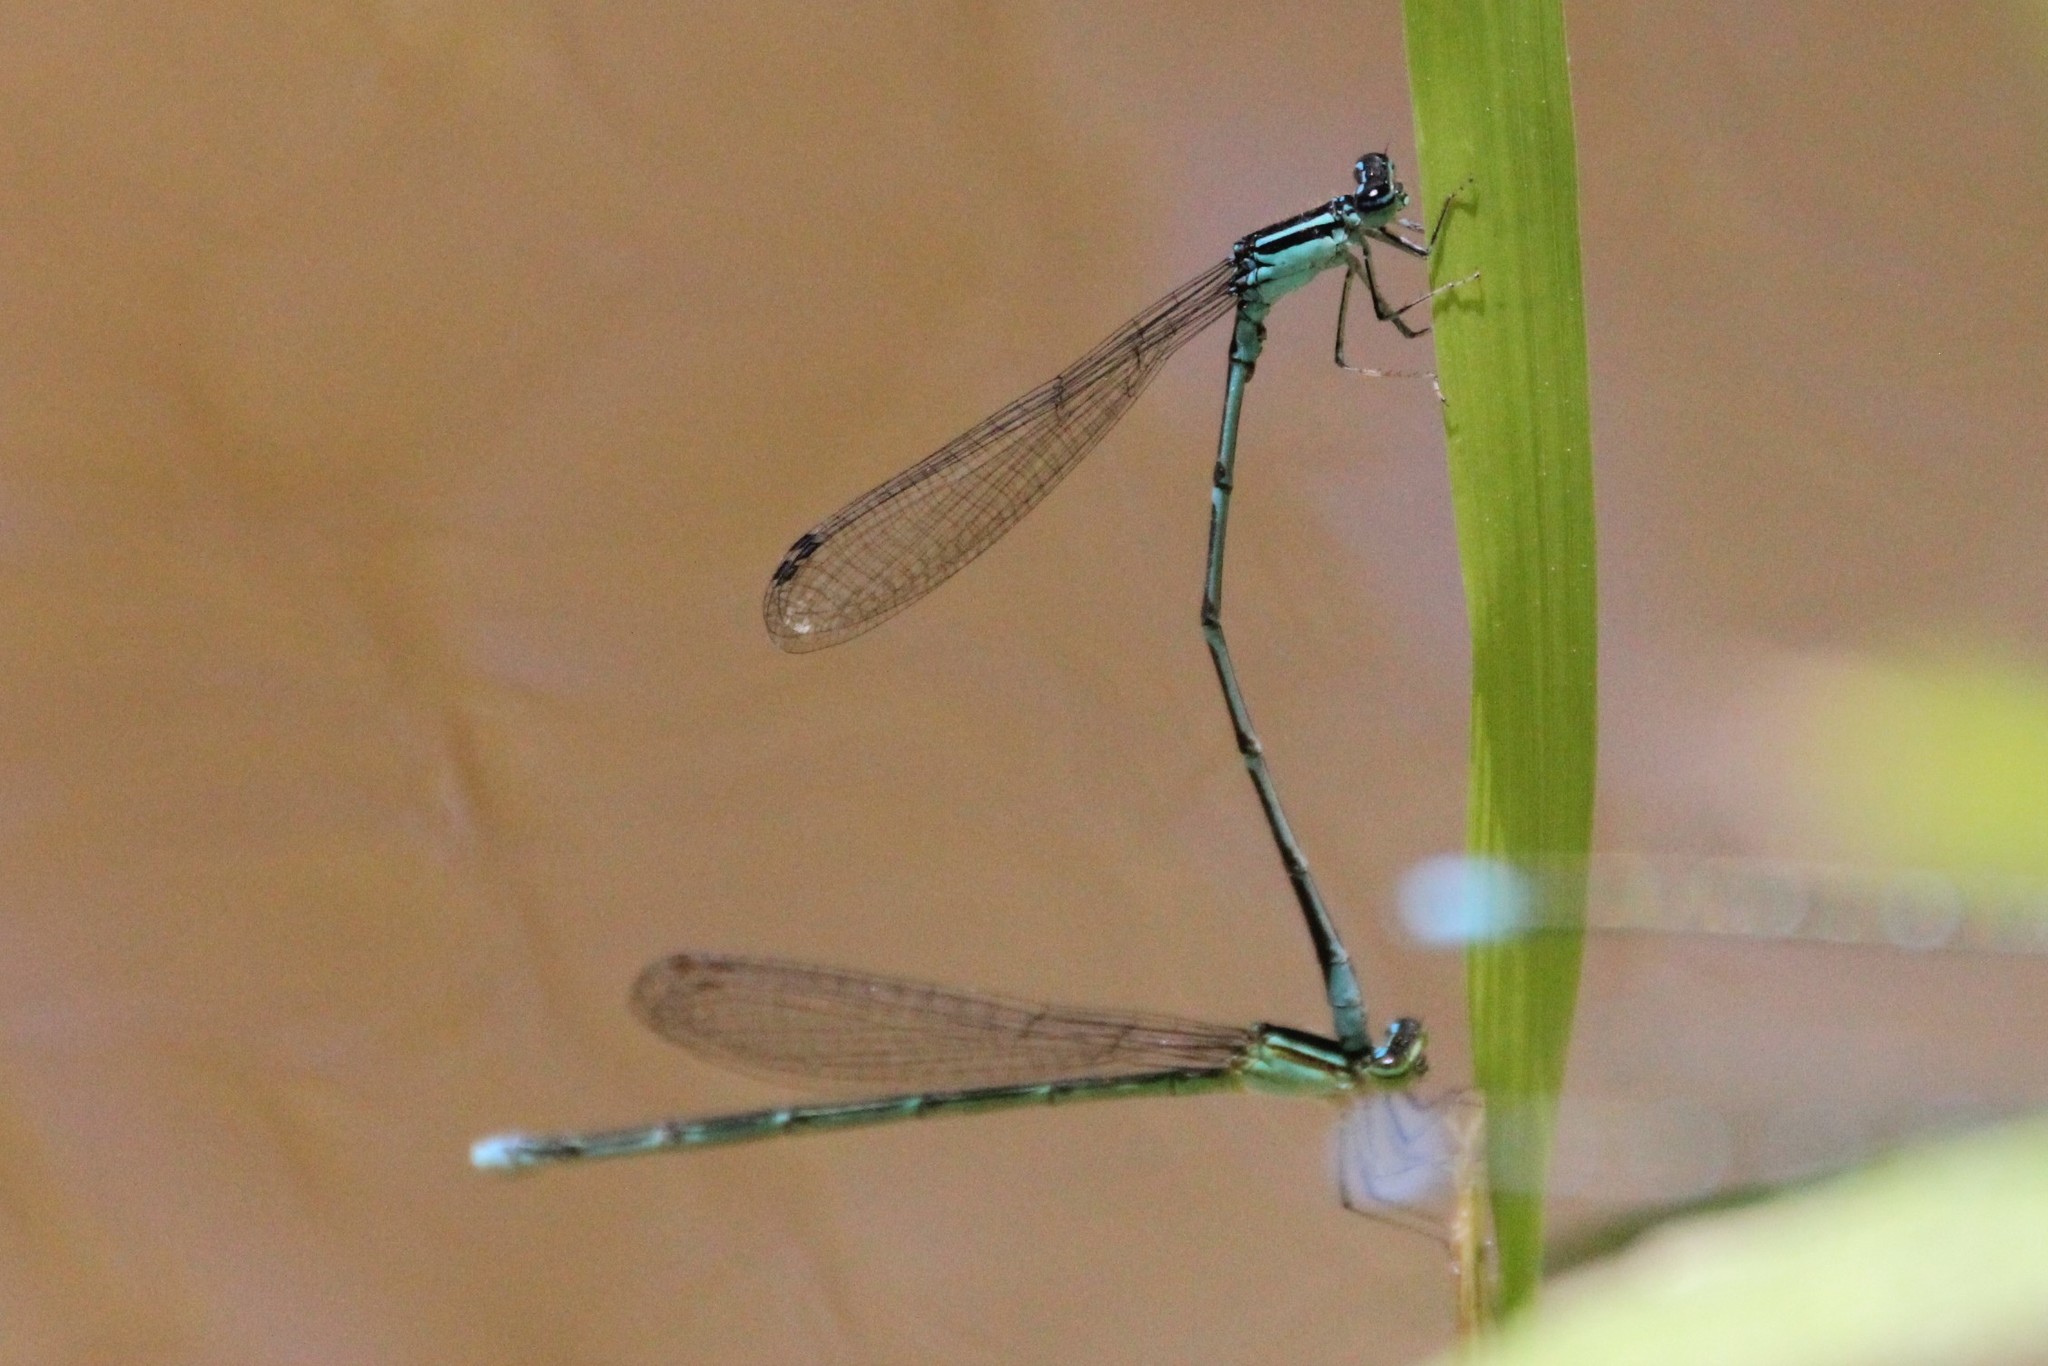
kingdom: Animalia
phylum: Arthropoda
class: Insecta
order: Odonata
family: Coenagrionidae
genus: Enallagma
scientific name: Enallagma exsulans
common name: Stream bluet
